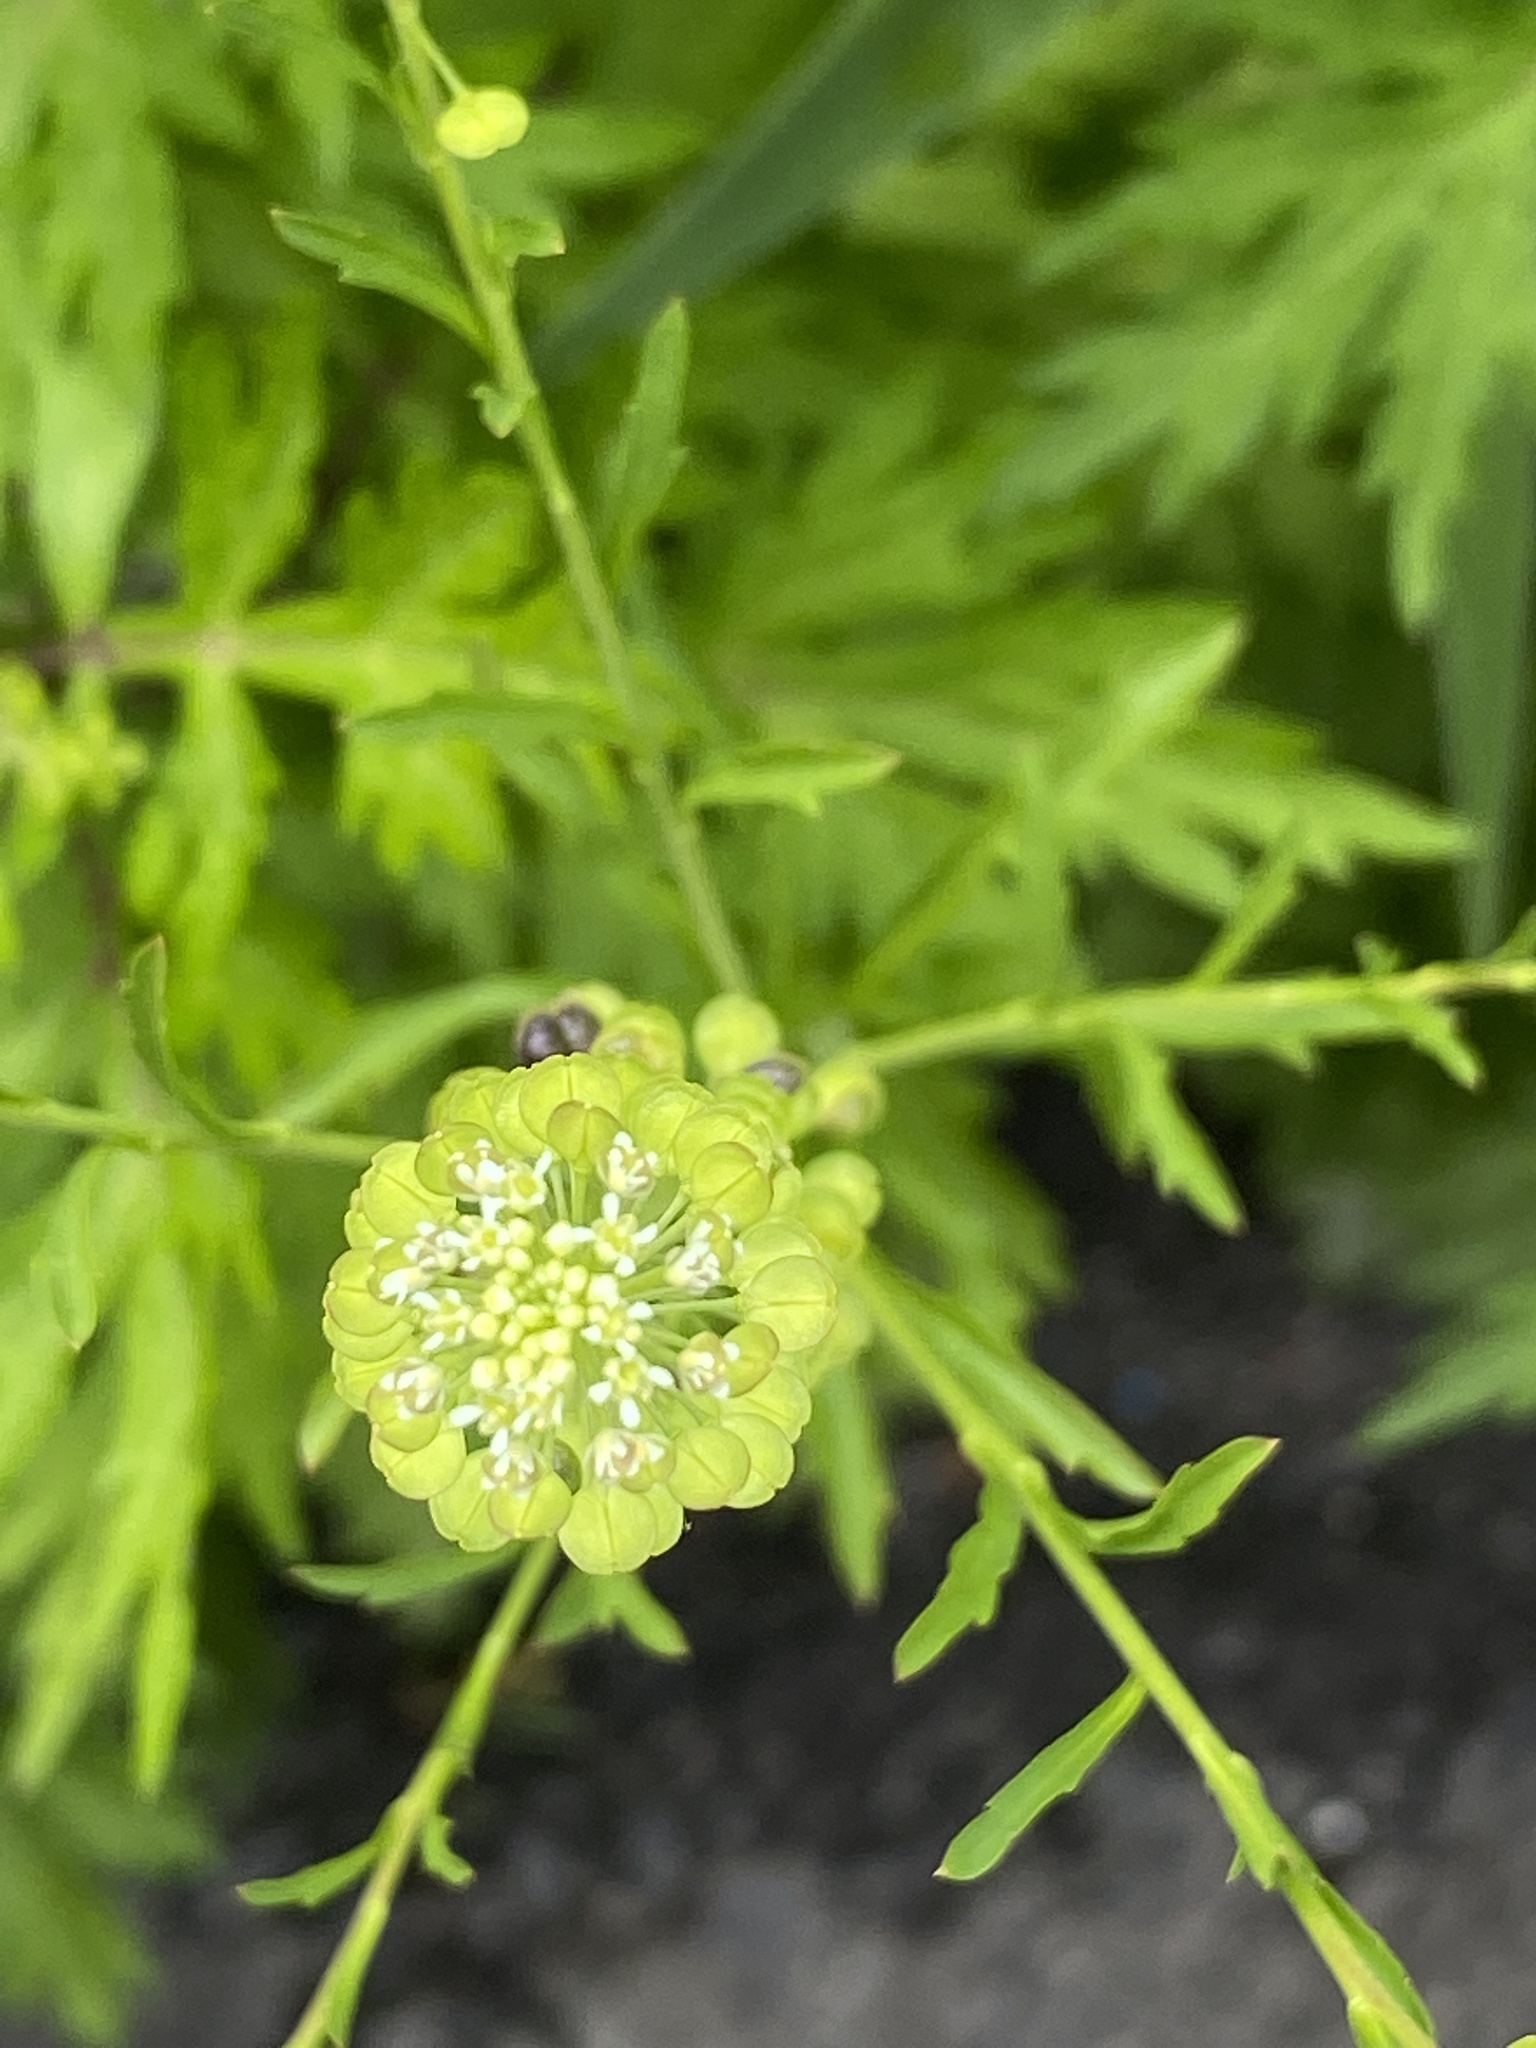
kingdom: Plantae
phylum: Tracheophyta
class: Magnoliopsida
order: Brassicales
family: Brassicaceae
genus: Lepidium
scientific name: Lepidium virginicum
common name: Least pepperwort
